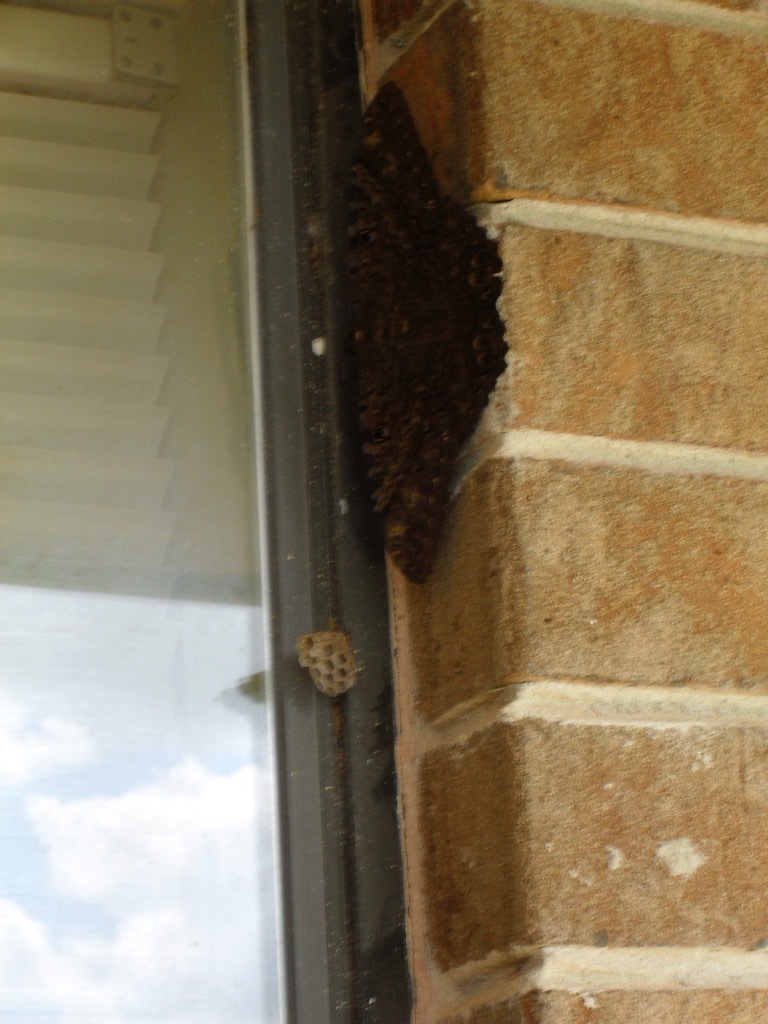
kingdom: Animalia
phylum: Arthropoda
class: Insecta
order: Lepidoptera
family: Erebidae
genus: Ascalapha
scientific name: Ascalapha odorata
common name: Black witch
